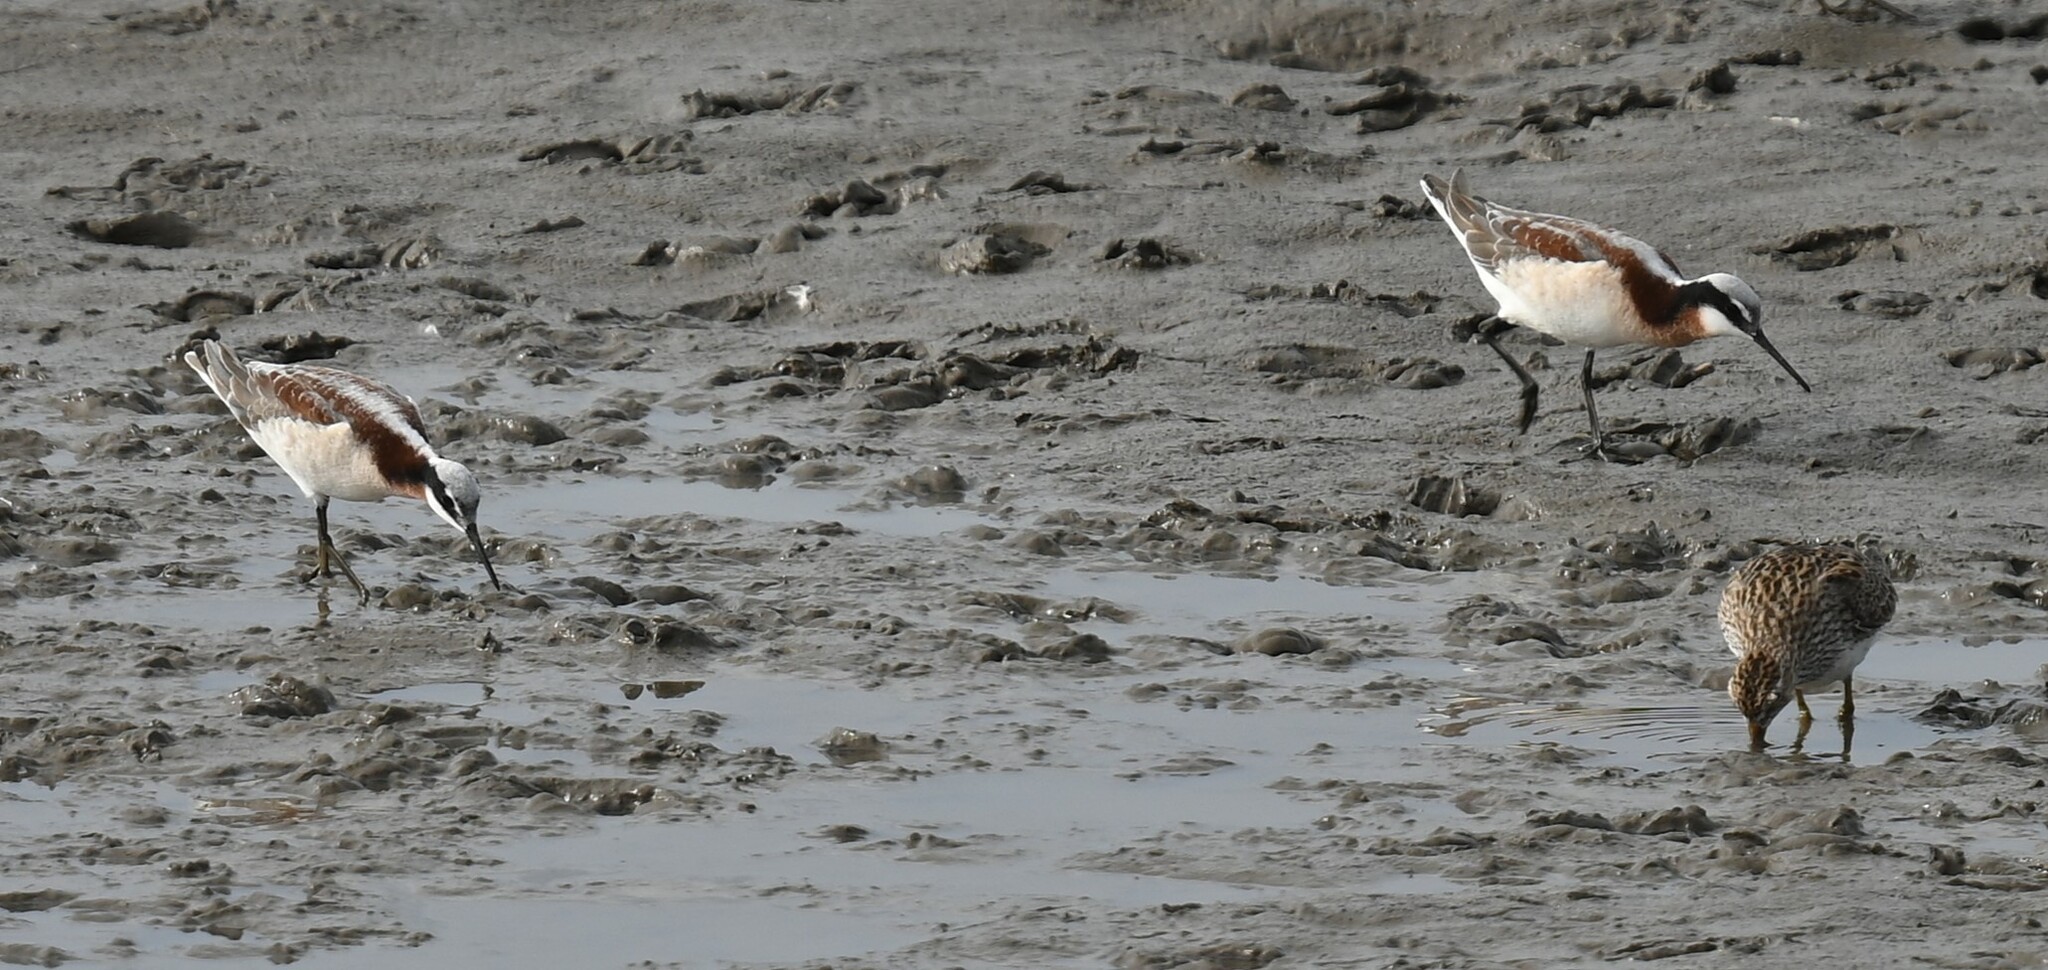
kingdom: Animalia
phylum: Chordata
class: Aves
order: Charadriiformes
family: Scolopacidae
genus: Phalaropus
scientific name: Phalaropus tricolor
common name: Wilson's phalarope
